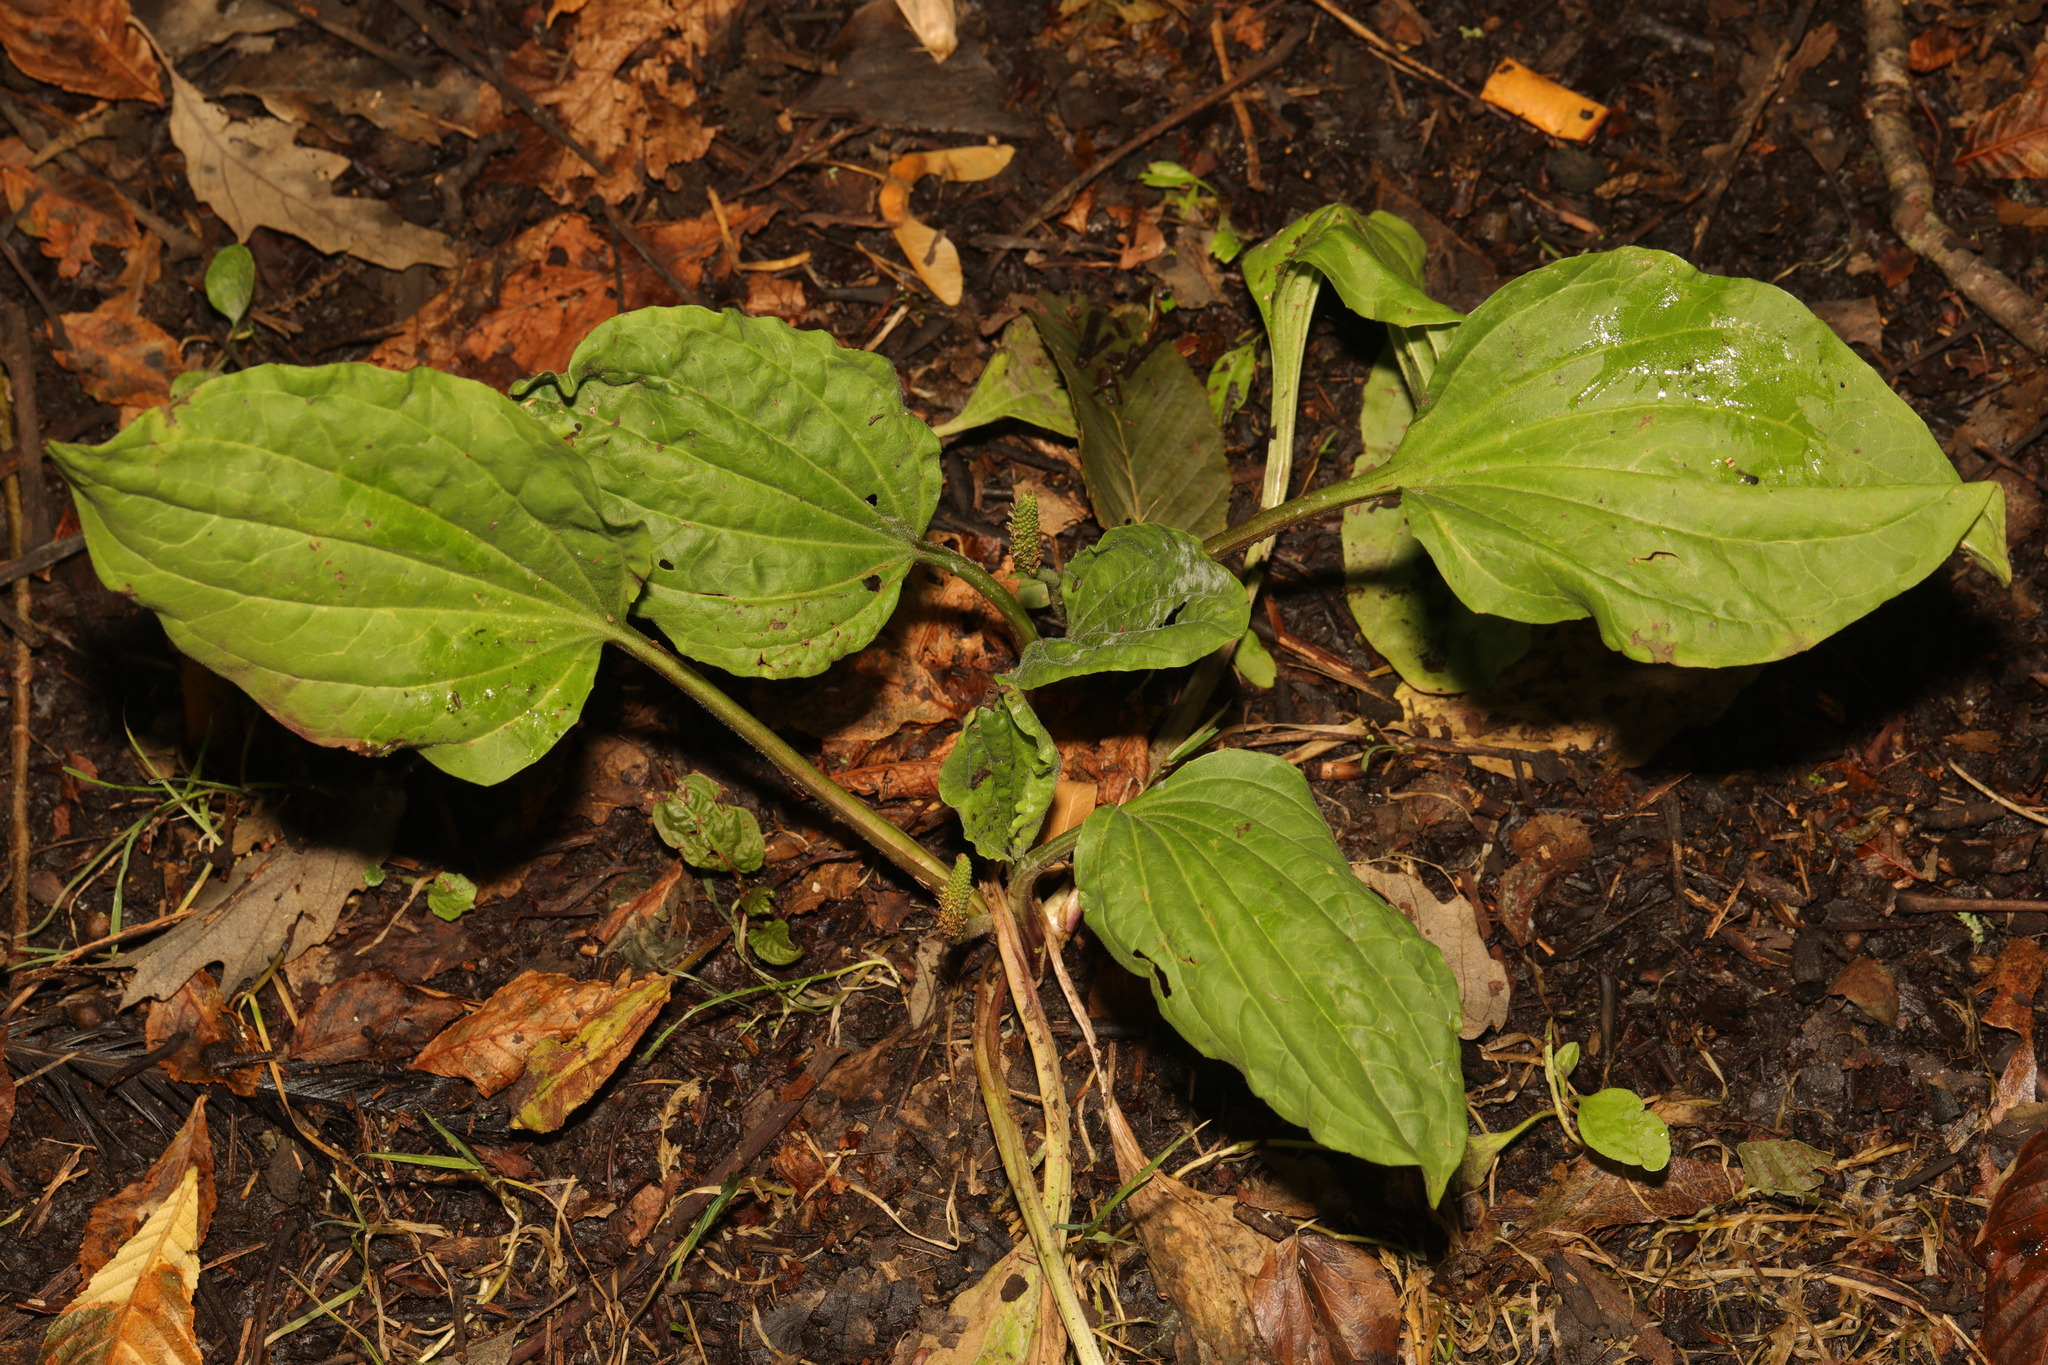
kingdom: Plantae
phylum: Tracheophyta
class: Magnoliopsida
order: Lamiales
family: Plantaginaceae
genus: Plantago
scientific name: Plantago major
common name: Common plantain
